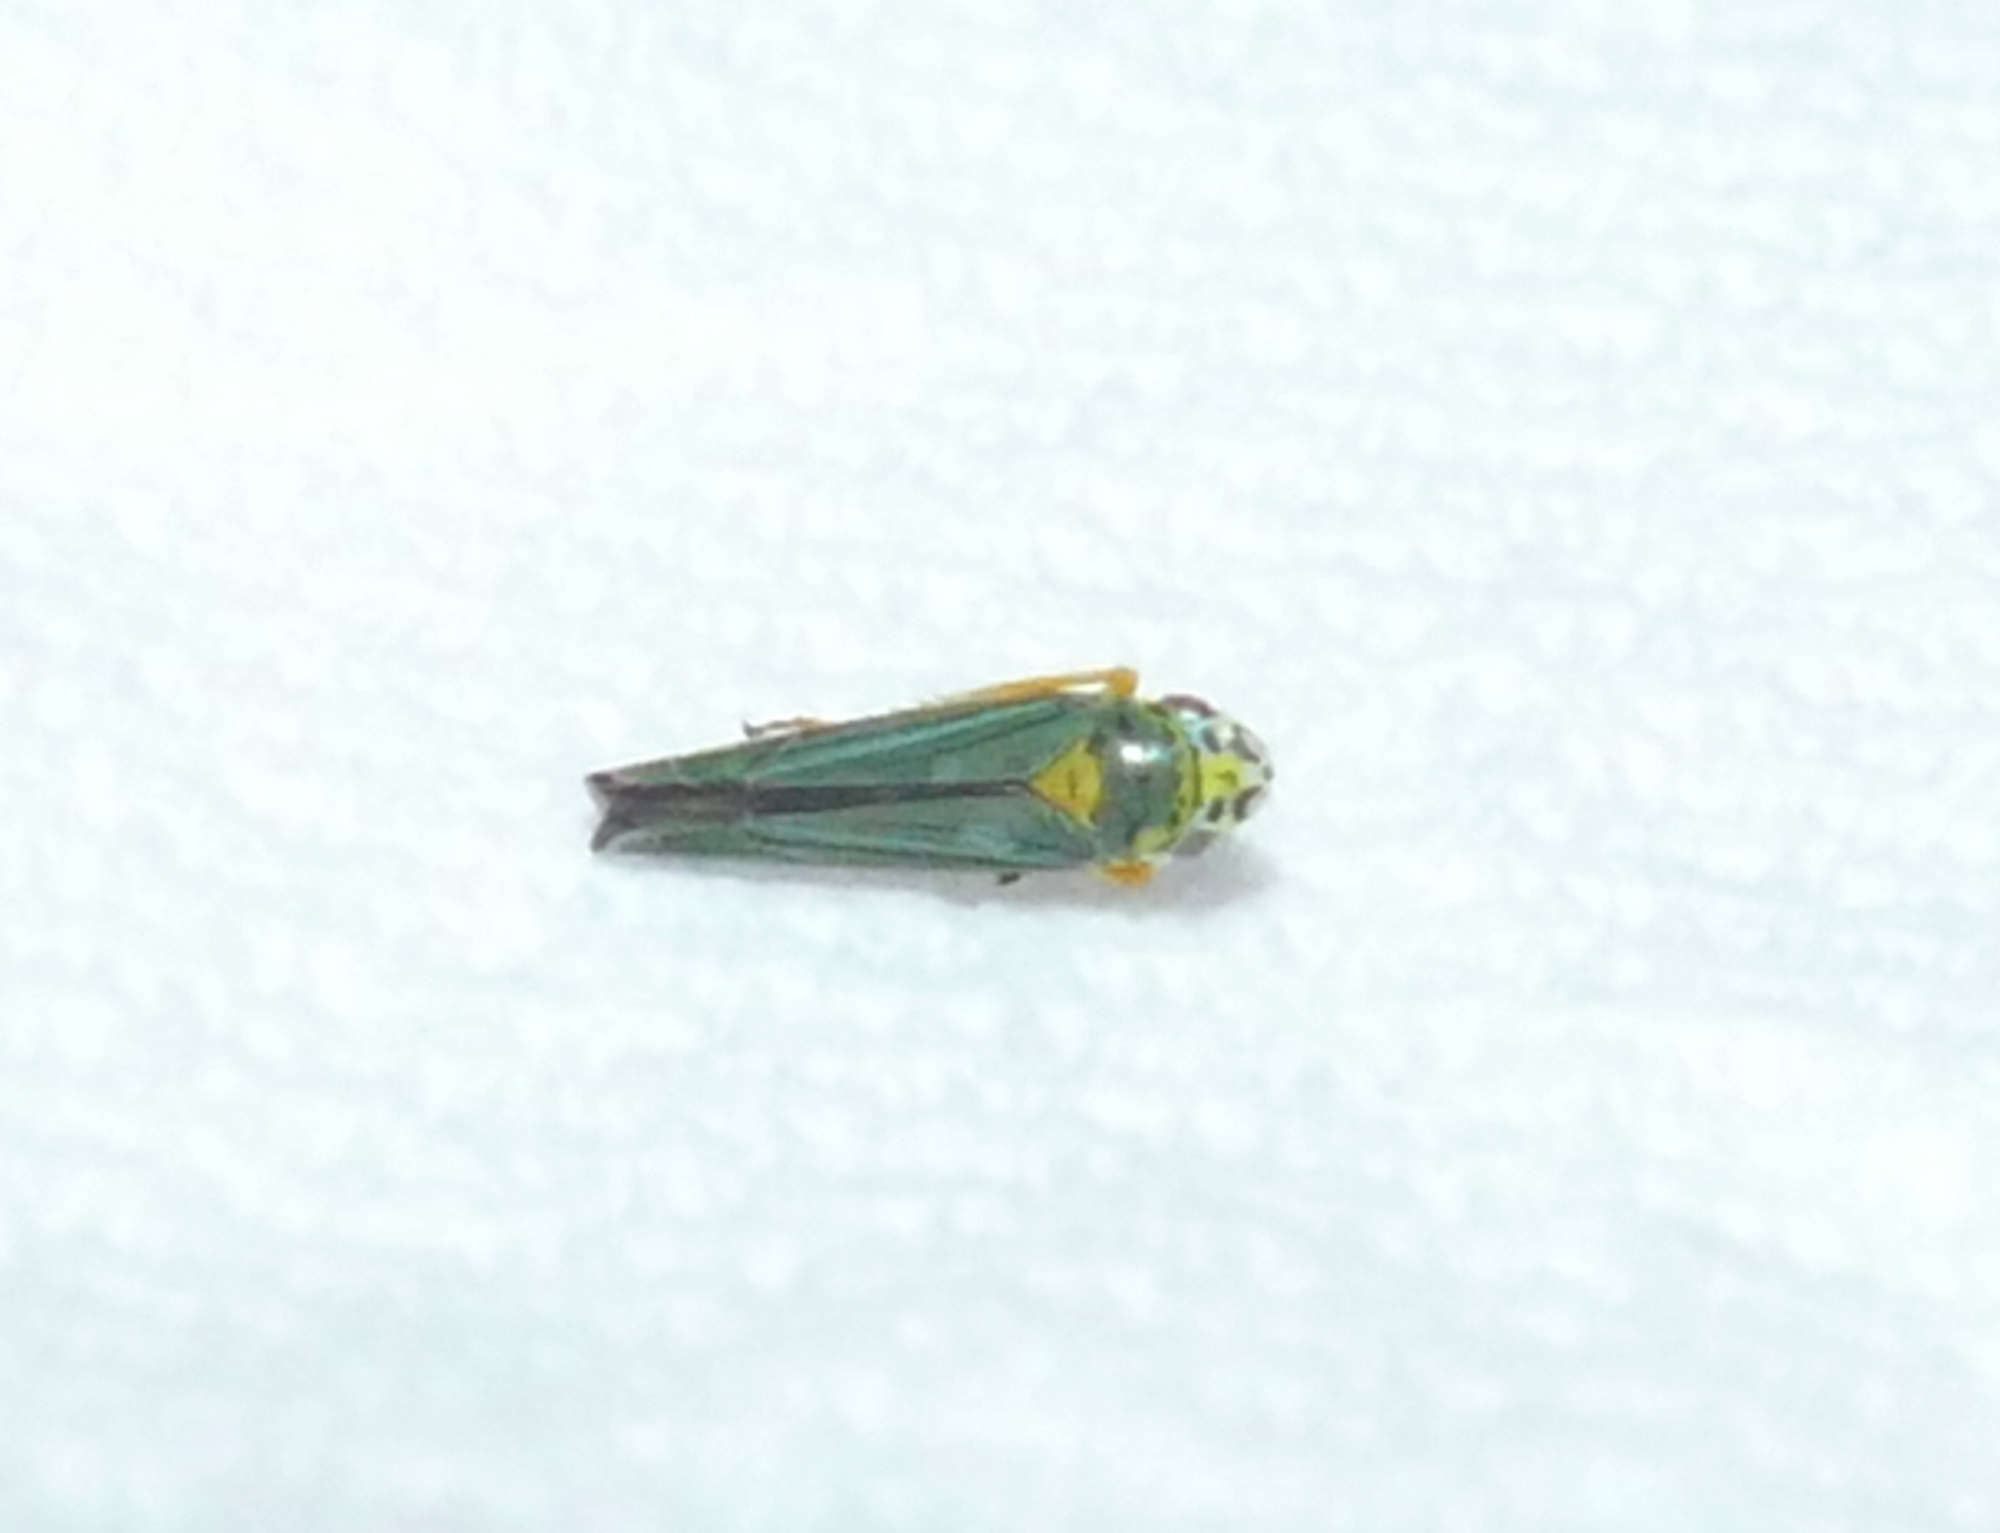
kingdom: Animalia
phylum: Arthropoda
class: Insecta
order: Hemiptera
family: Cicadellidae
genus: Graphocephala
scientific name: Graphocephala atropunctata
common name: Blue-green sharpshooter
